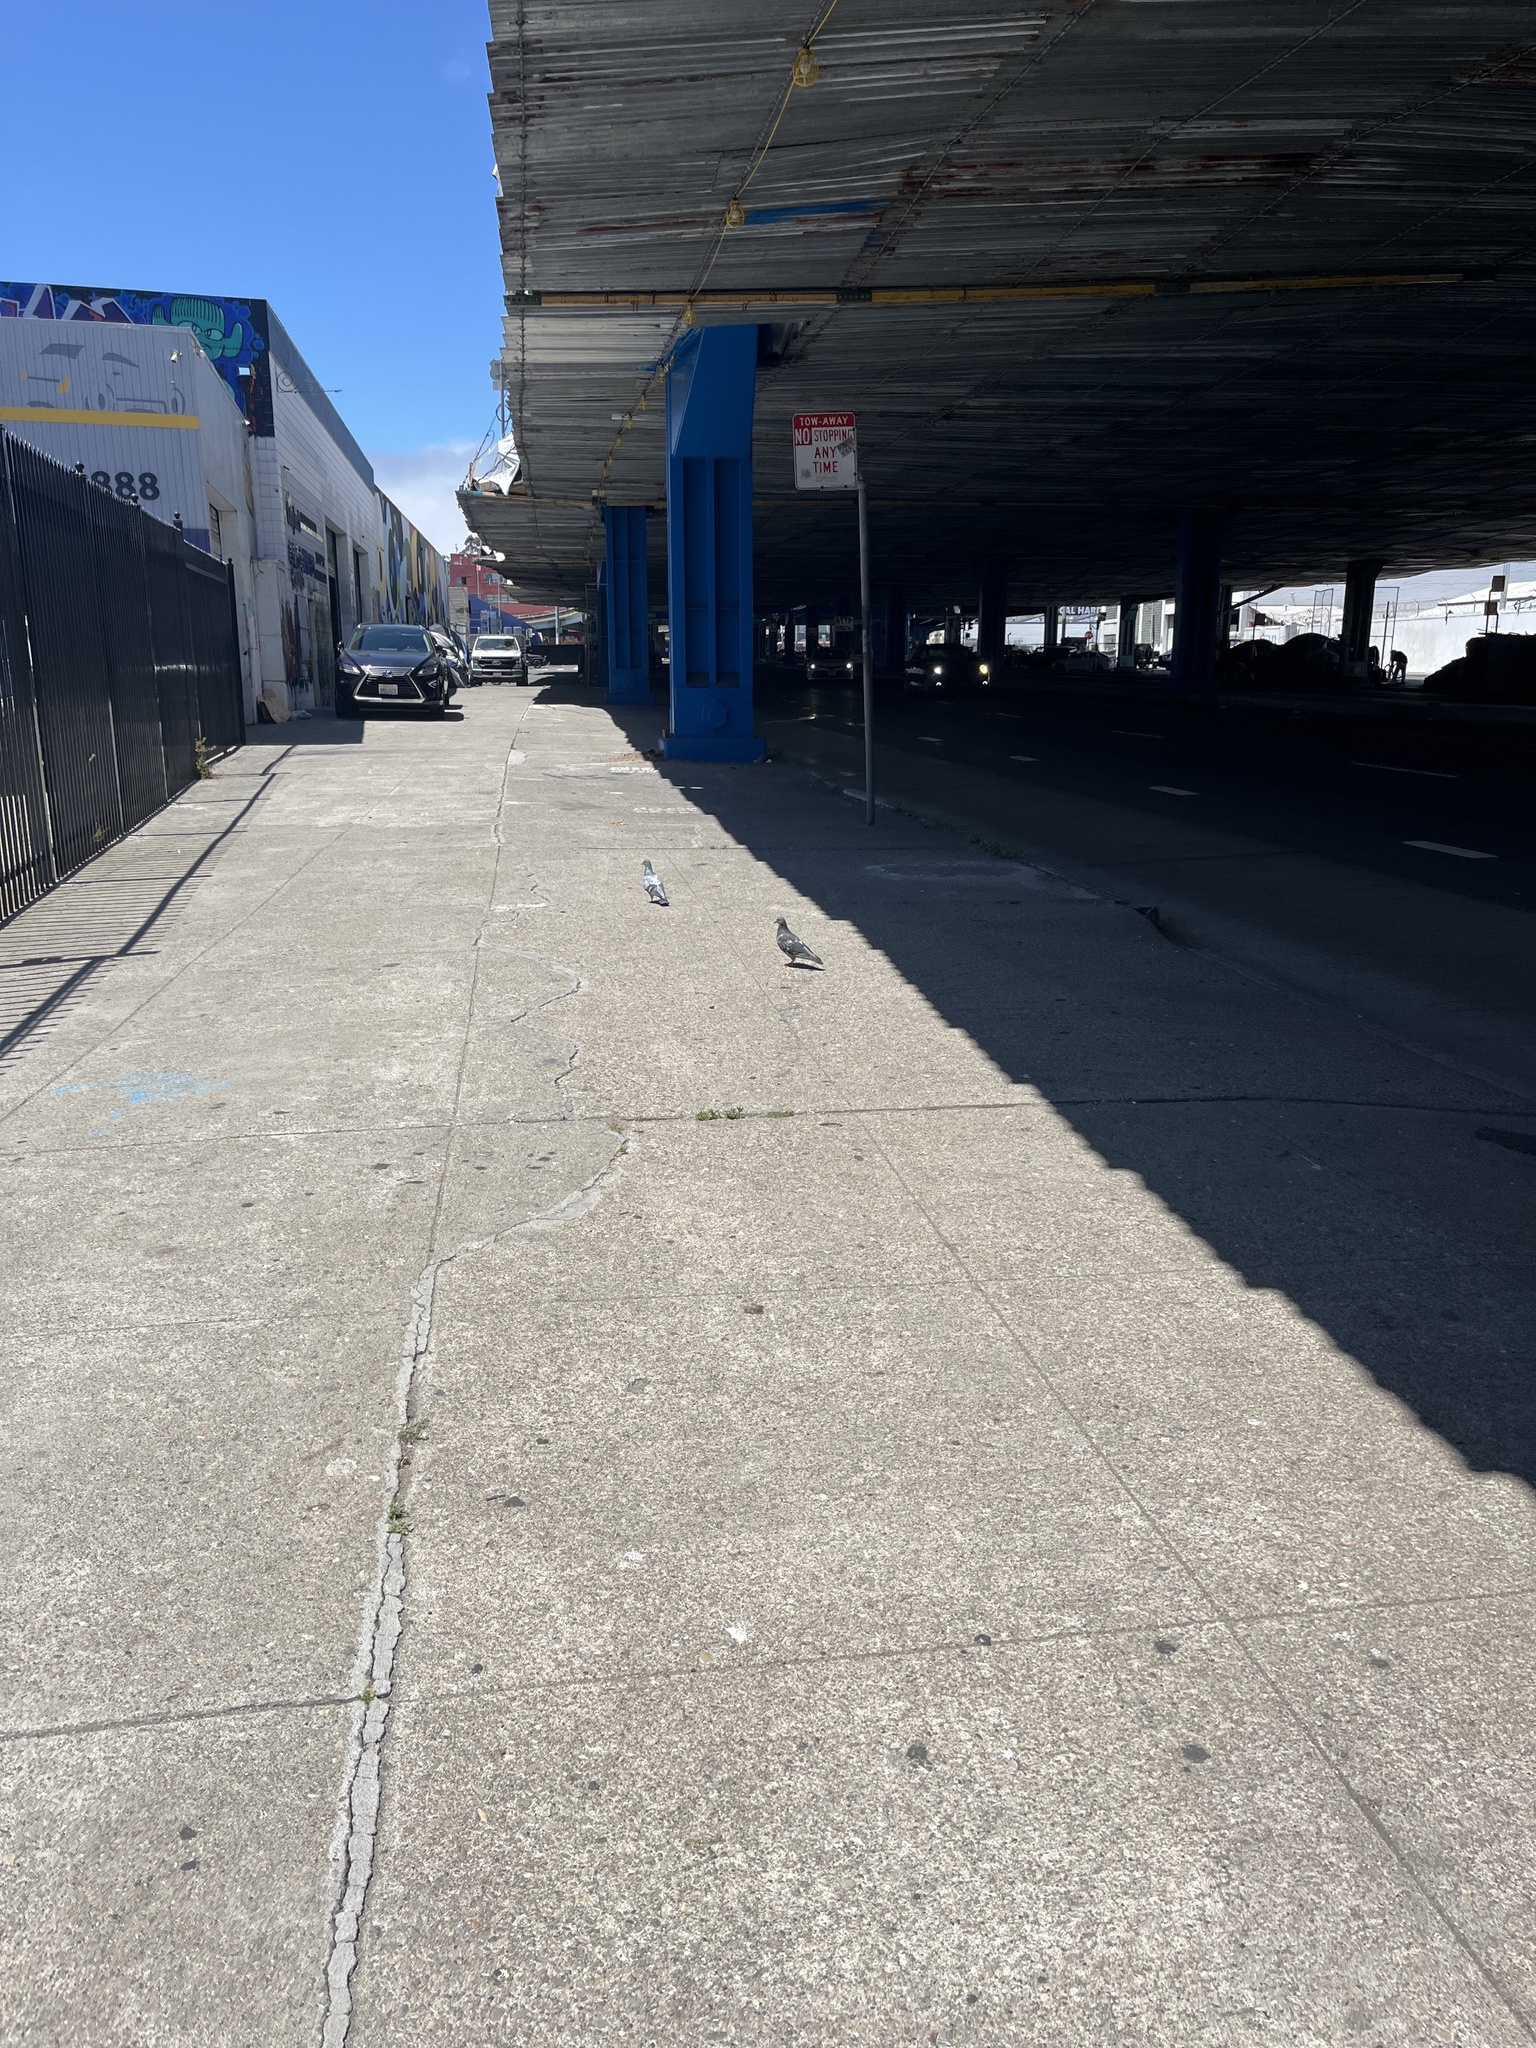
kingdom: Animalia
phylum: Chordata
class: Aves
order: Columbiformes
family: Columbidae
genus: Columba
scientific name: Columba livia
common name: Rock pigeon
